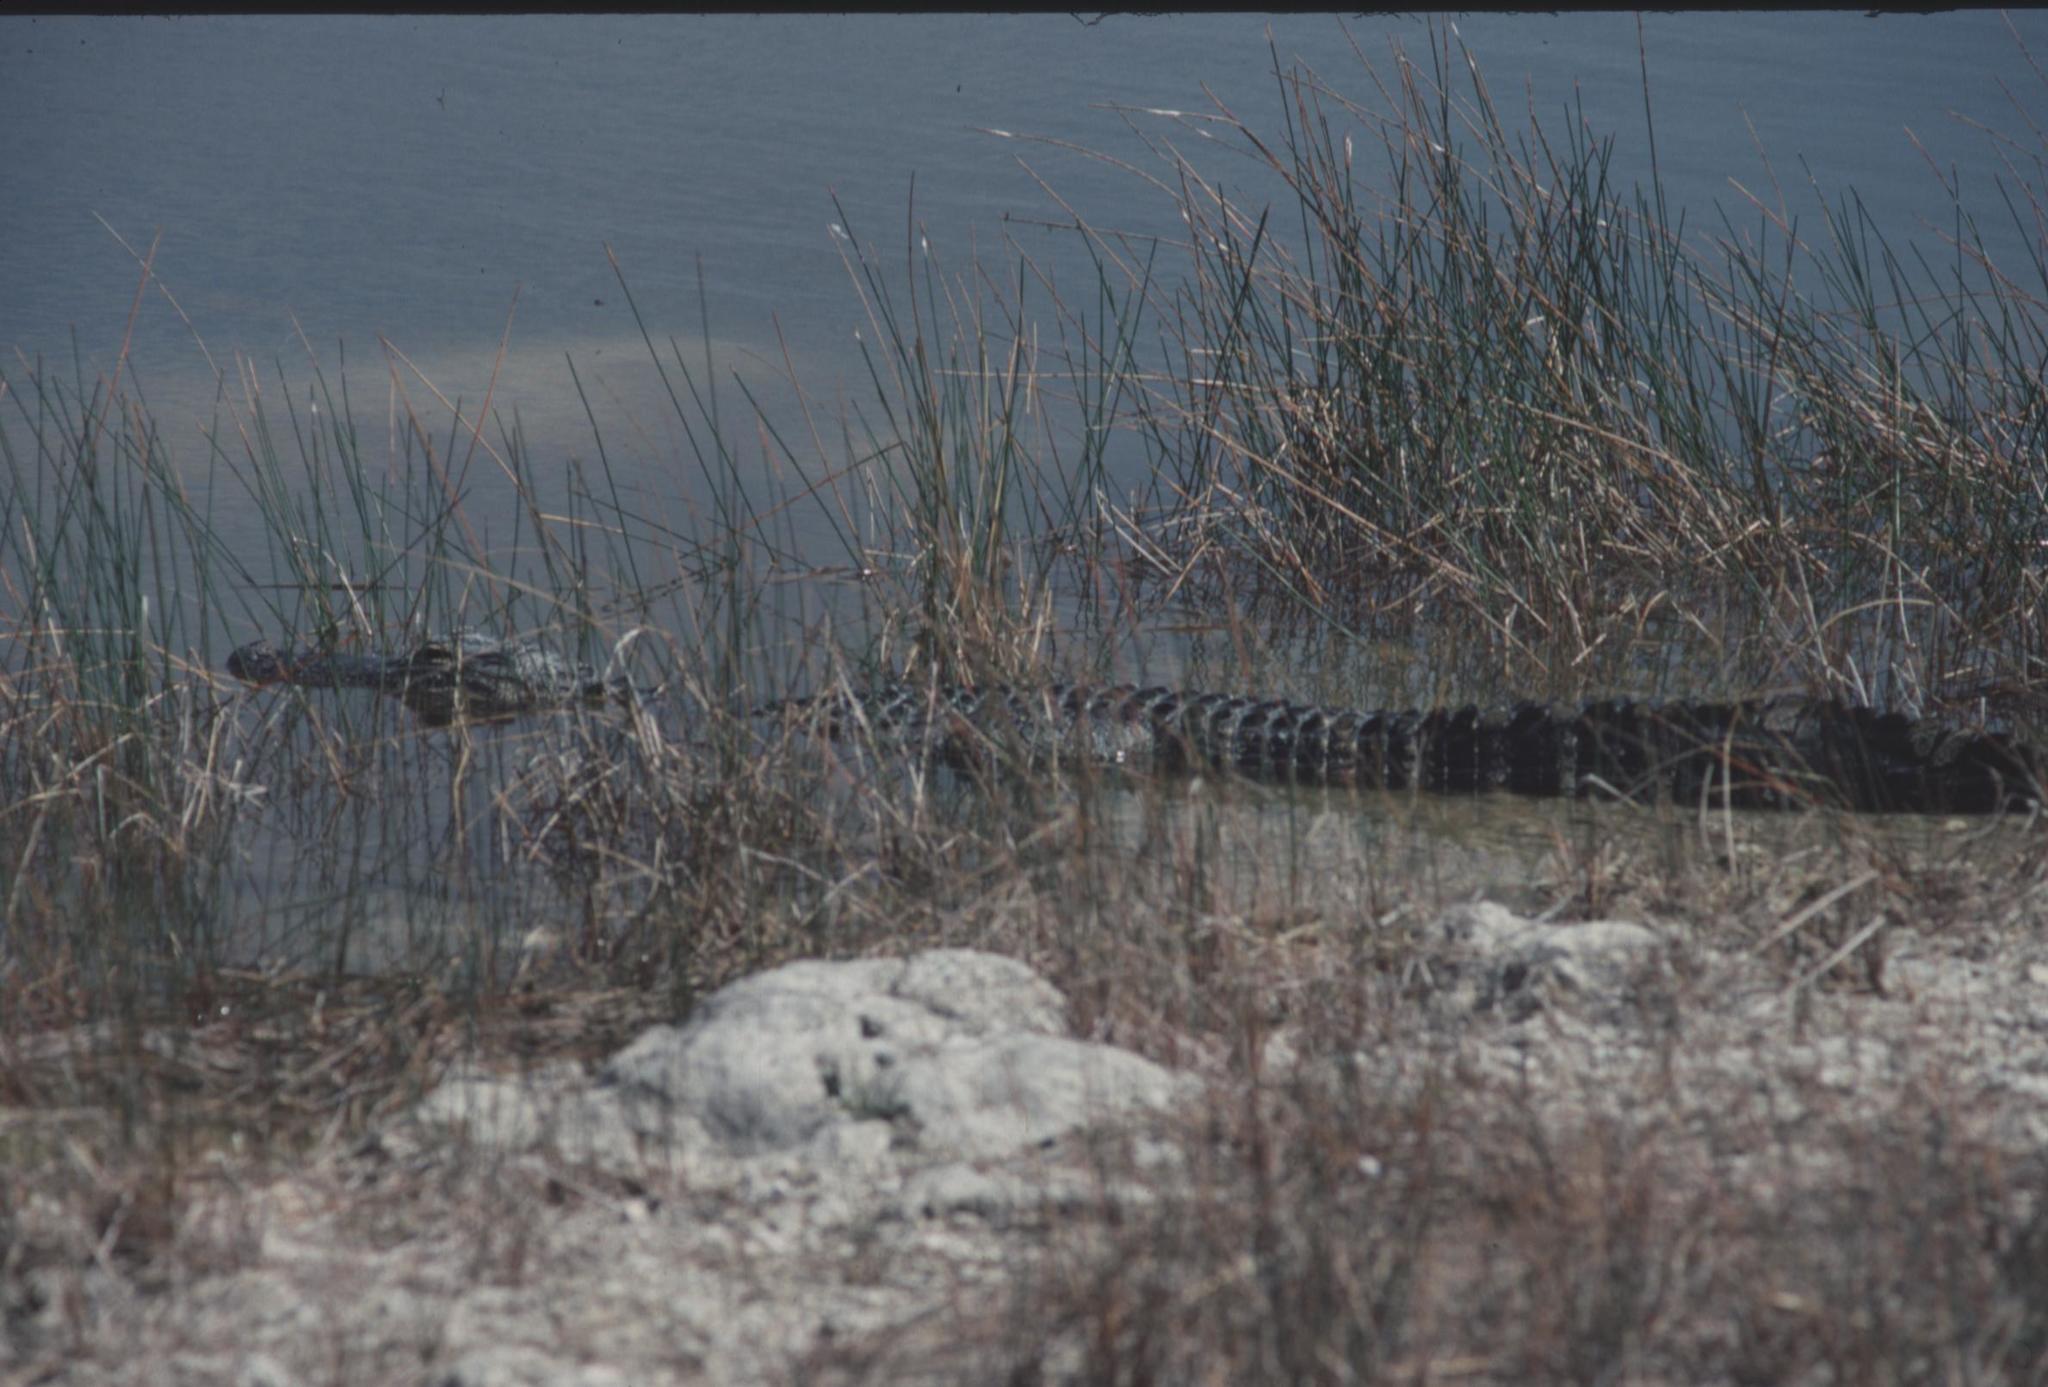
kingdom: Animalia
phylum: Chordata
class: Crocodylia
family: Alligatoridae
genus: Alligator
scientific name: Alligator mississippiensis
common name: American alligator
